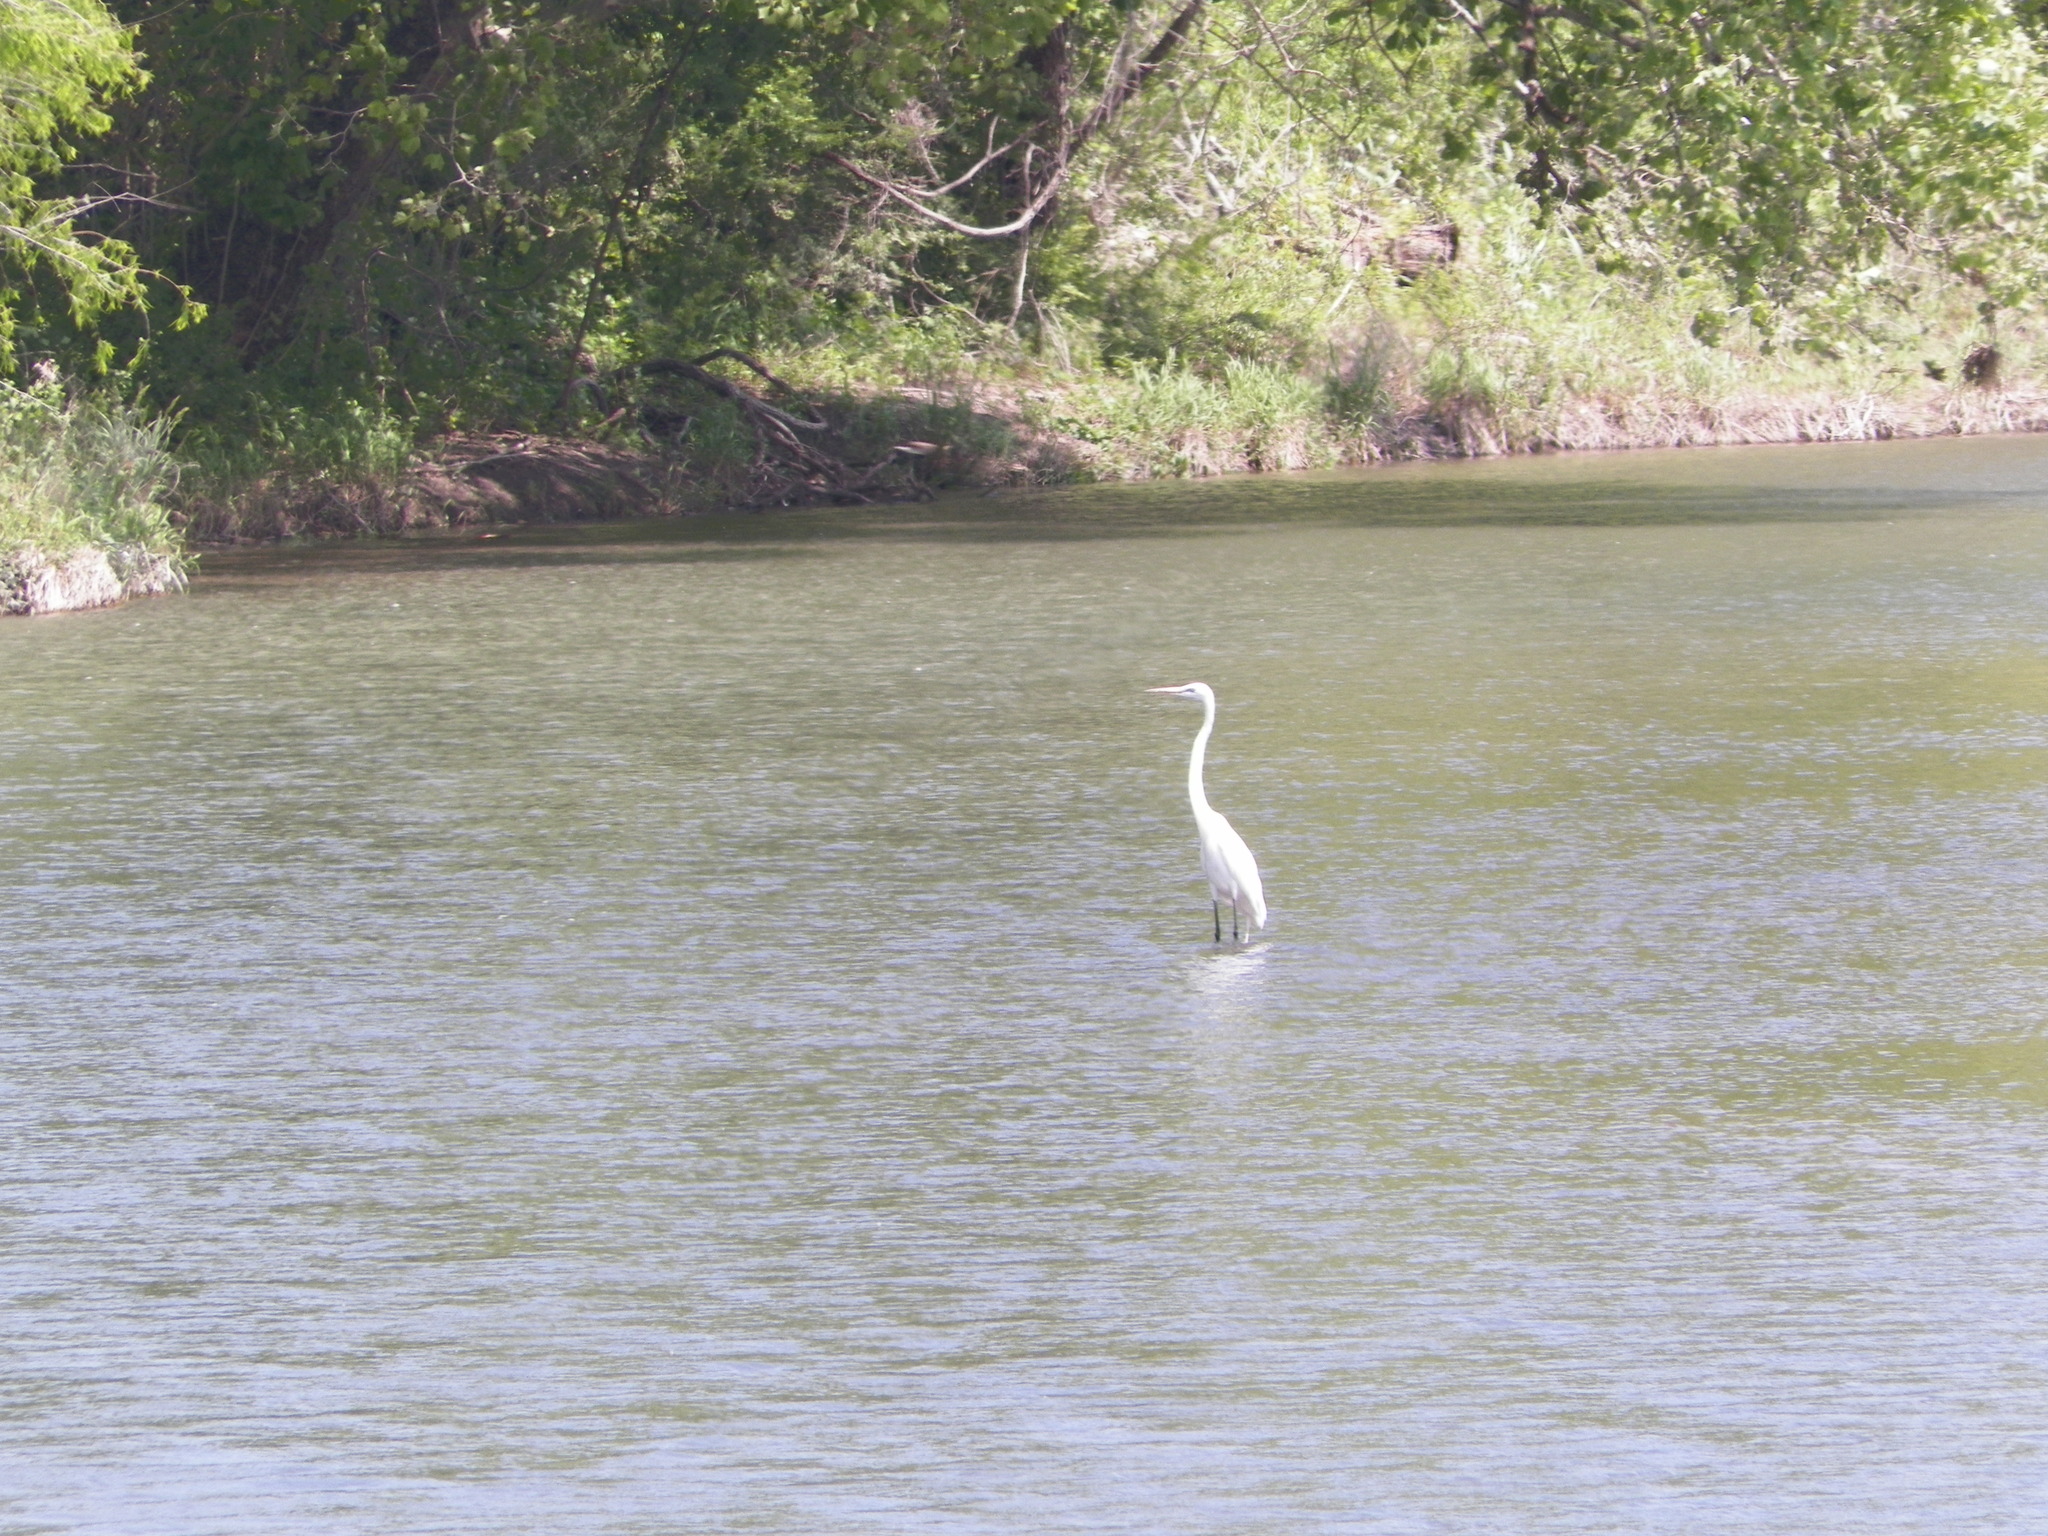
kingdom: Animalia
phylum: Chordata
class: Aves
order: Pelecaniformes
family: Ardeidae
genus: Ardea
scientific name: Ardea alba
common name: Great egret
